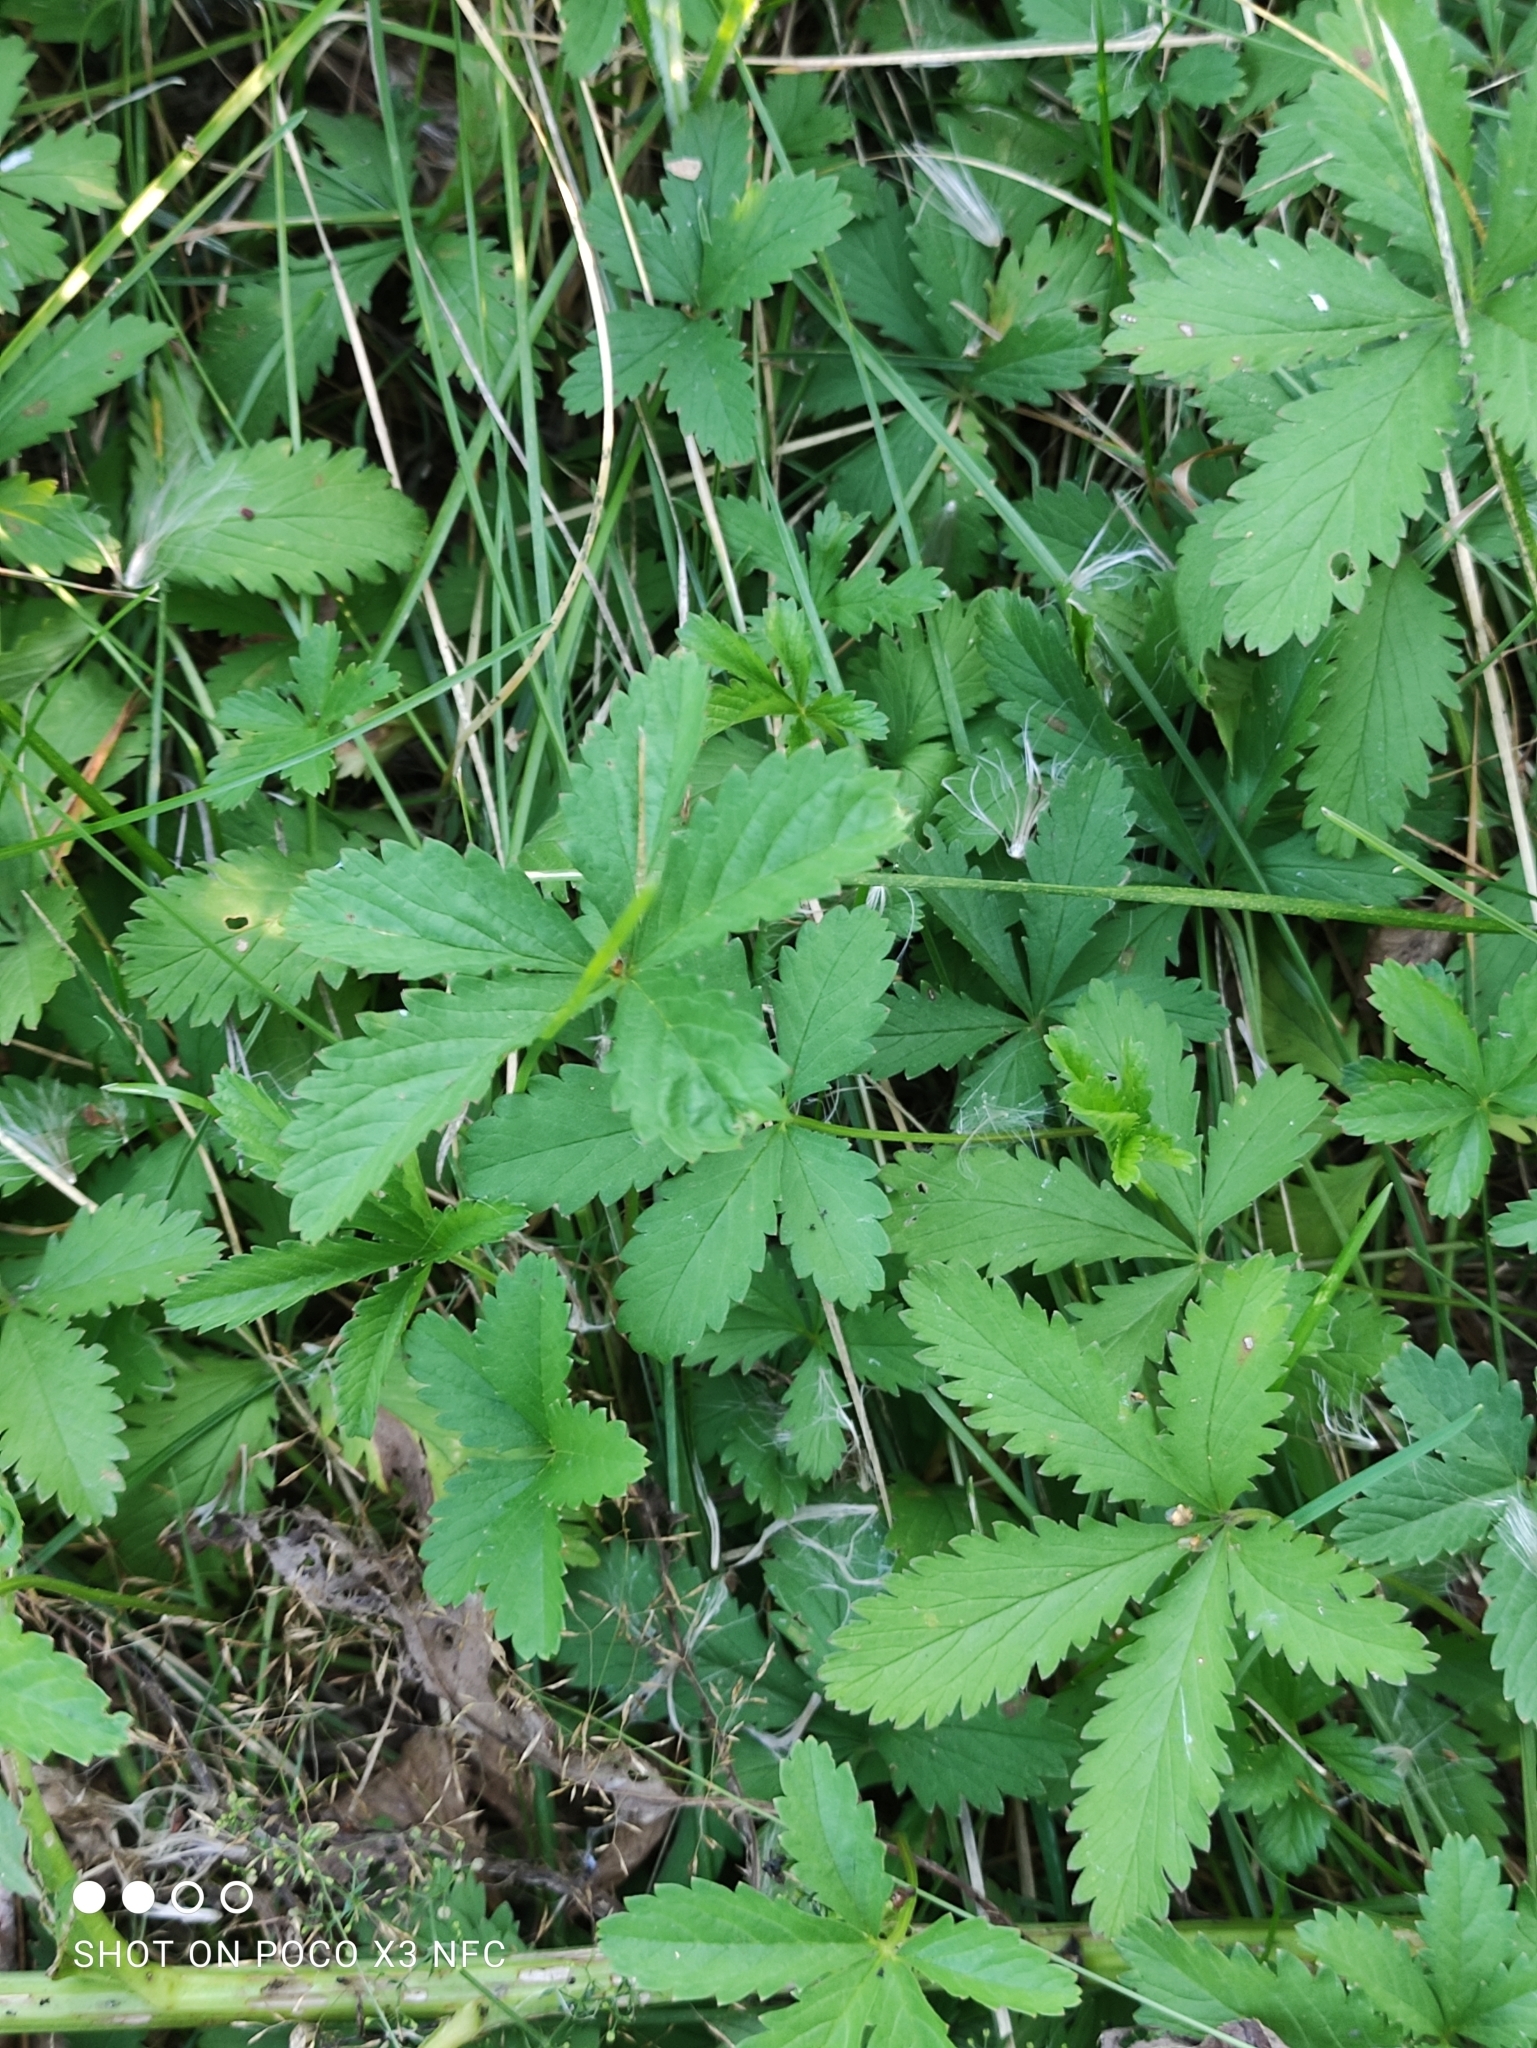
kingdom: Plantae
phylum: Tracheophyta
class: Magnoliopsida
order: Rosales
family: Rosaceae
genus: Potentilla
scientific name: Potentilla reptans
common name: Creeping cinquefoil
